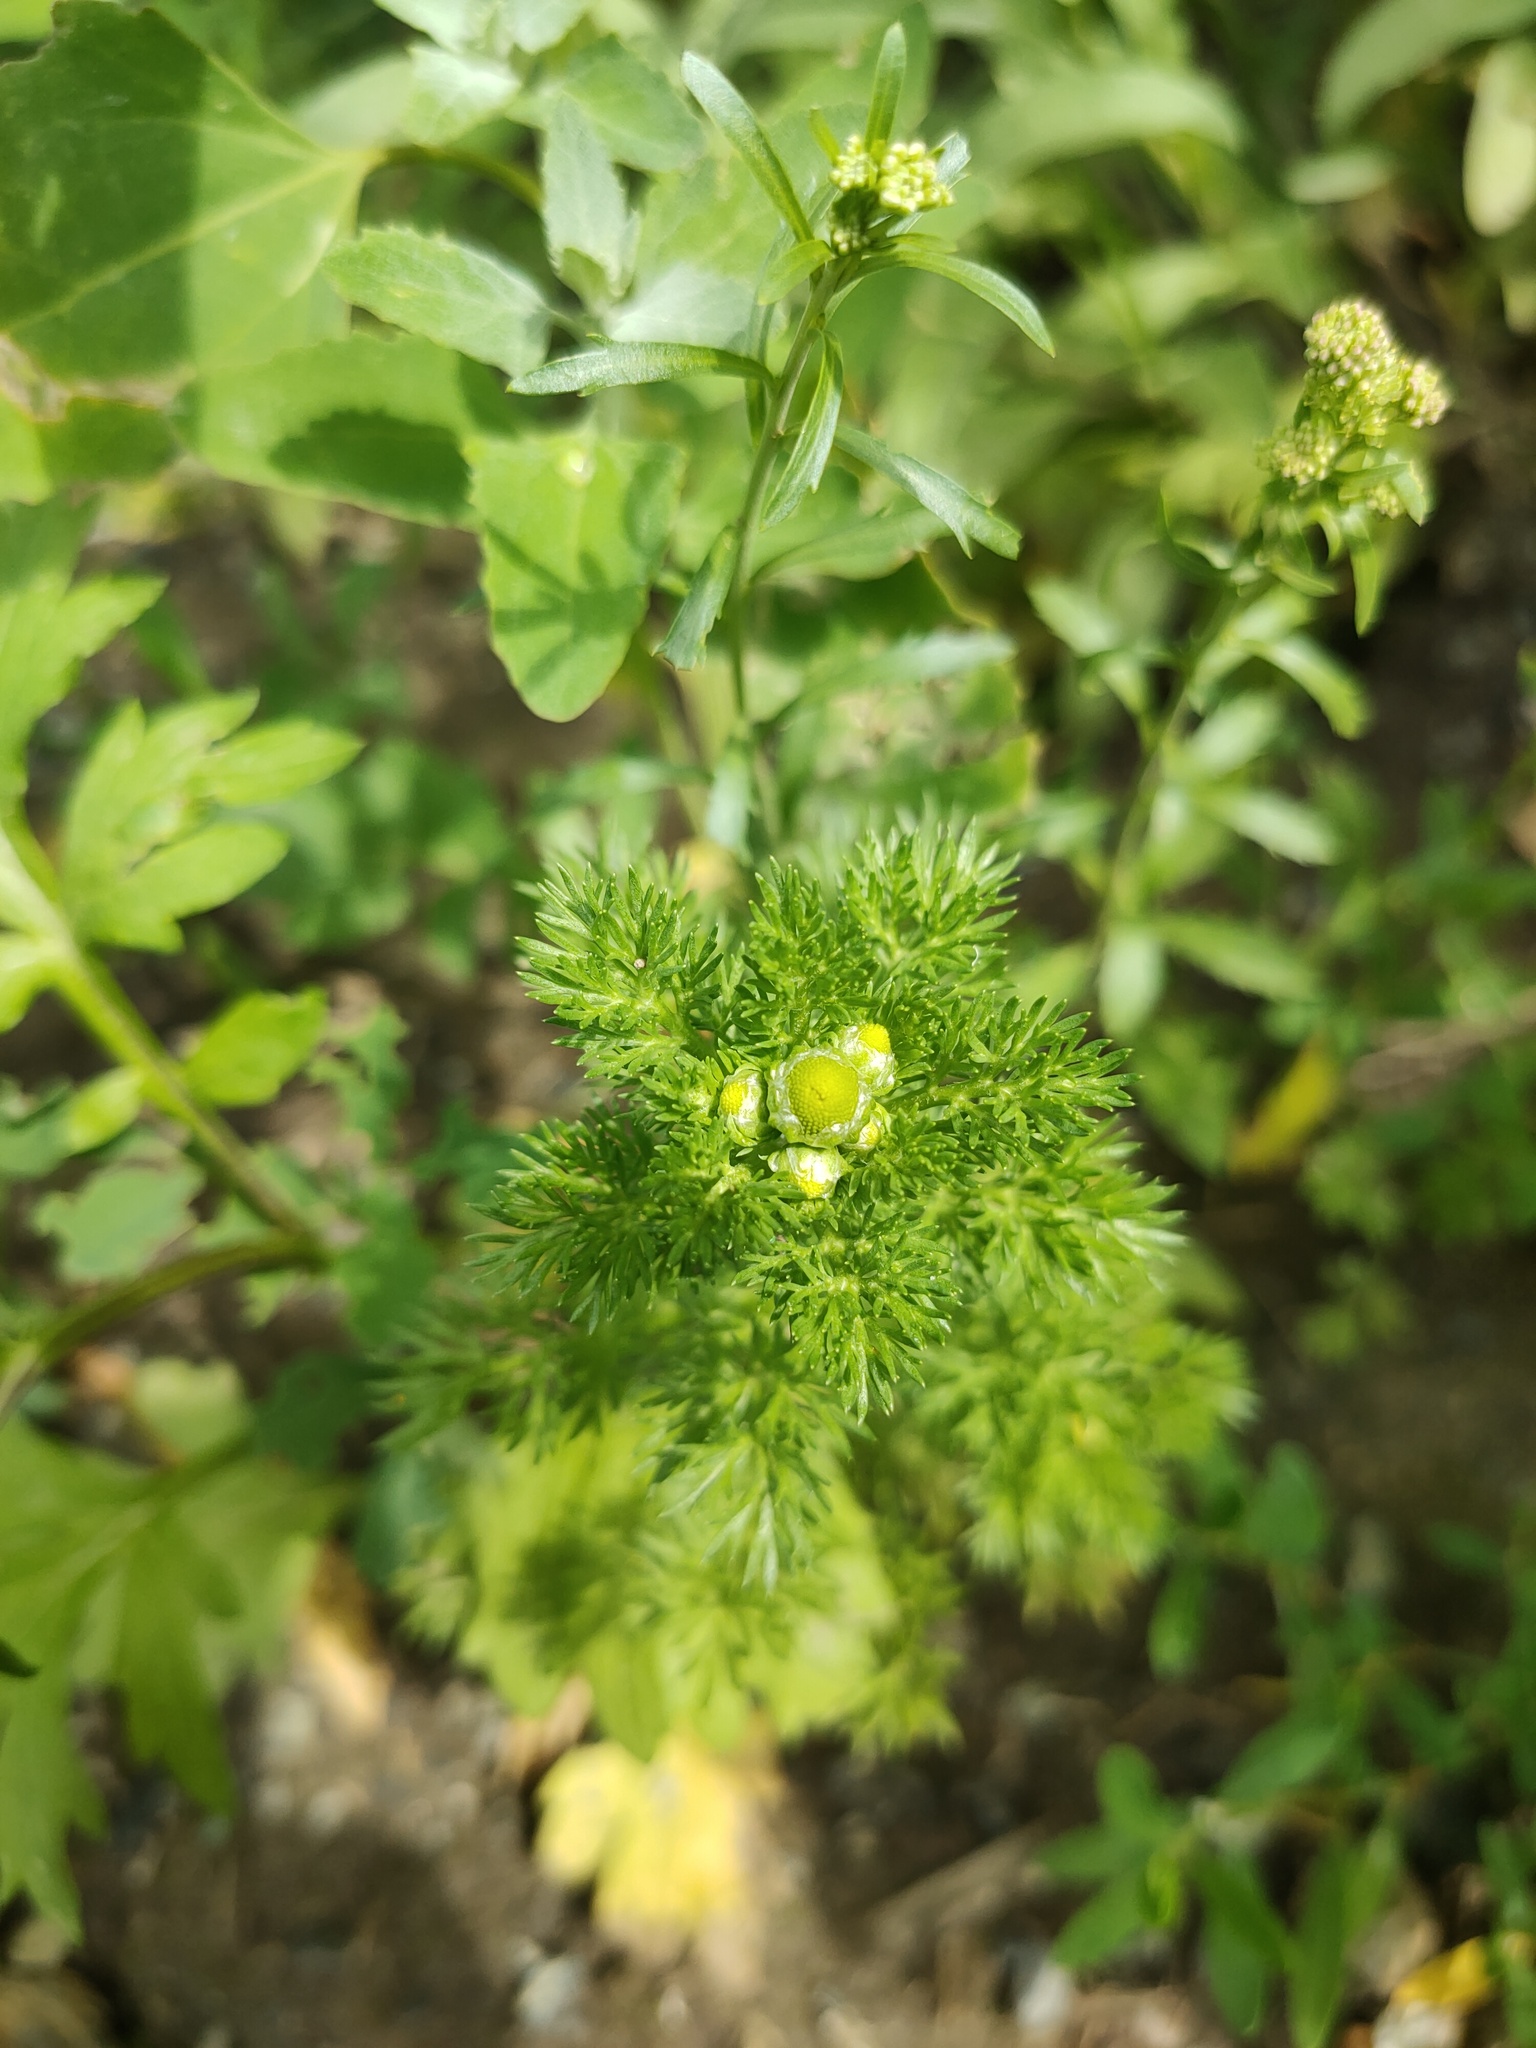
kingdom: Plantae
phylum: Tracheophyta
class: Magnoliopsida
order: Asterales
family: Asteraceae
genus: Matricaria
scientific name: Matricaria discoidea
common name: Disc mayweed
